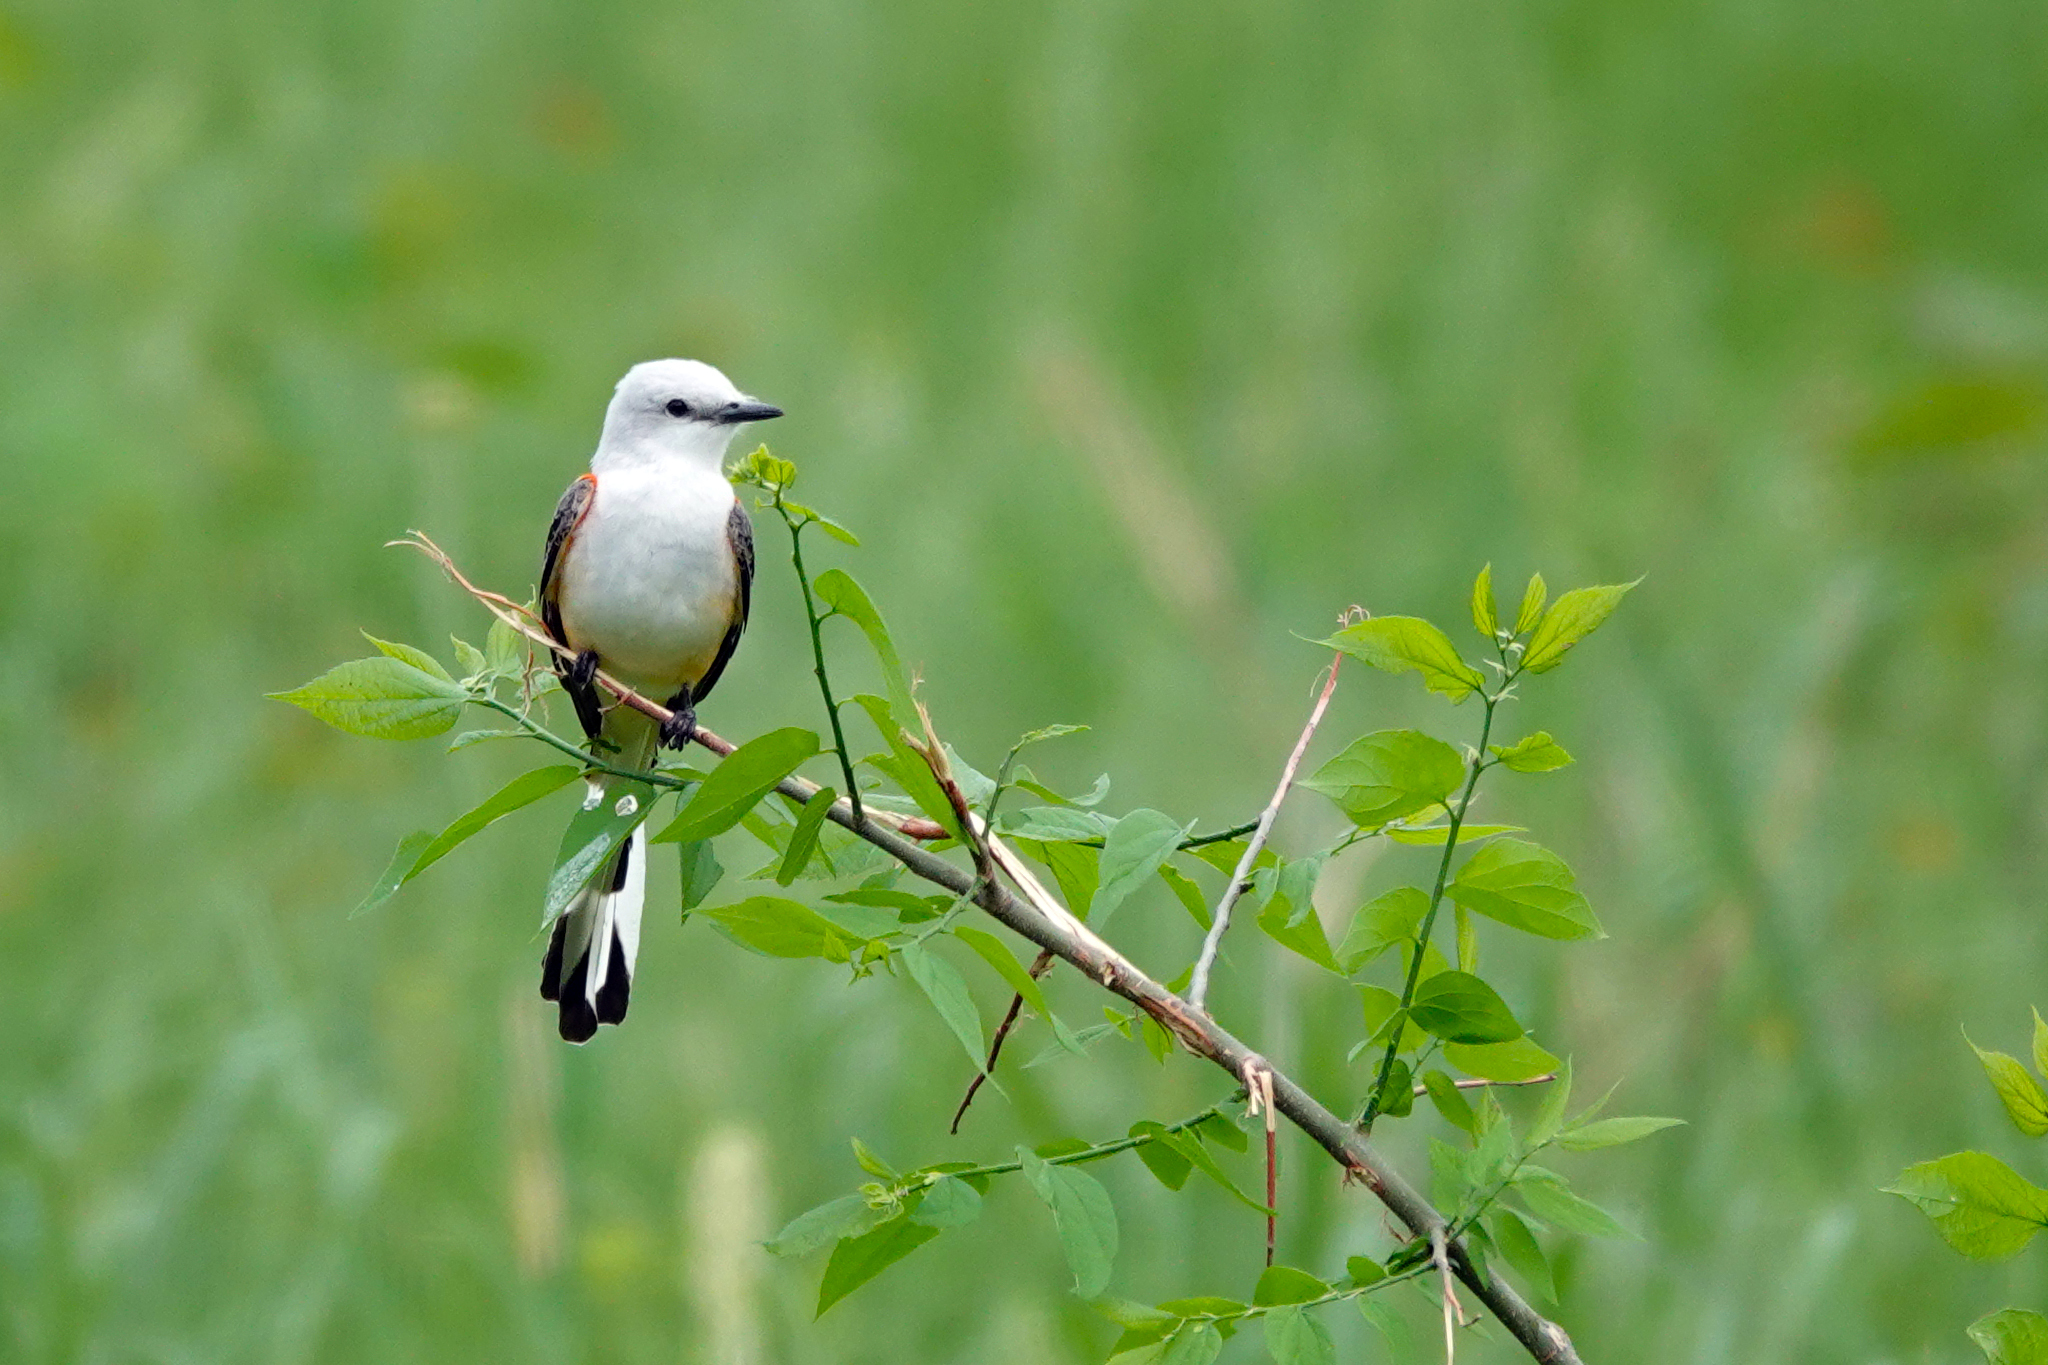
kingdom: Animalia
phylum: Chordata
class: Aves
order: Passeriformes
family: Tyrannidae
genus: Tyrannus
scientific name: Tyrannus forficatus
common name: Scissor-tailed flycatcher
